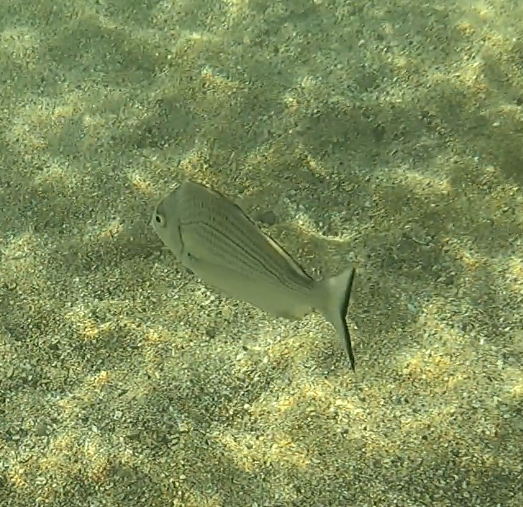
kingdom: Animalia
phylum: Chordata
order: Perciformes
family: Sparidae
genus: Acanthopagrus
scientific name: Acanthopagrus australis
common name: Surf bream
